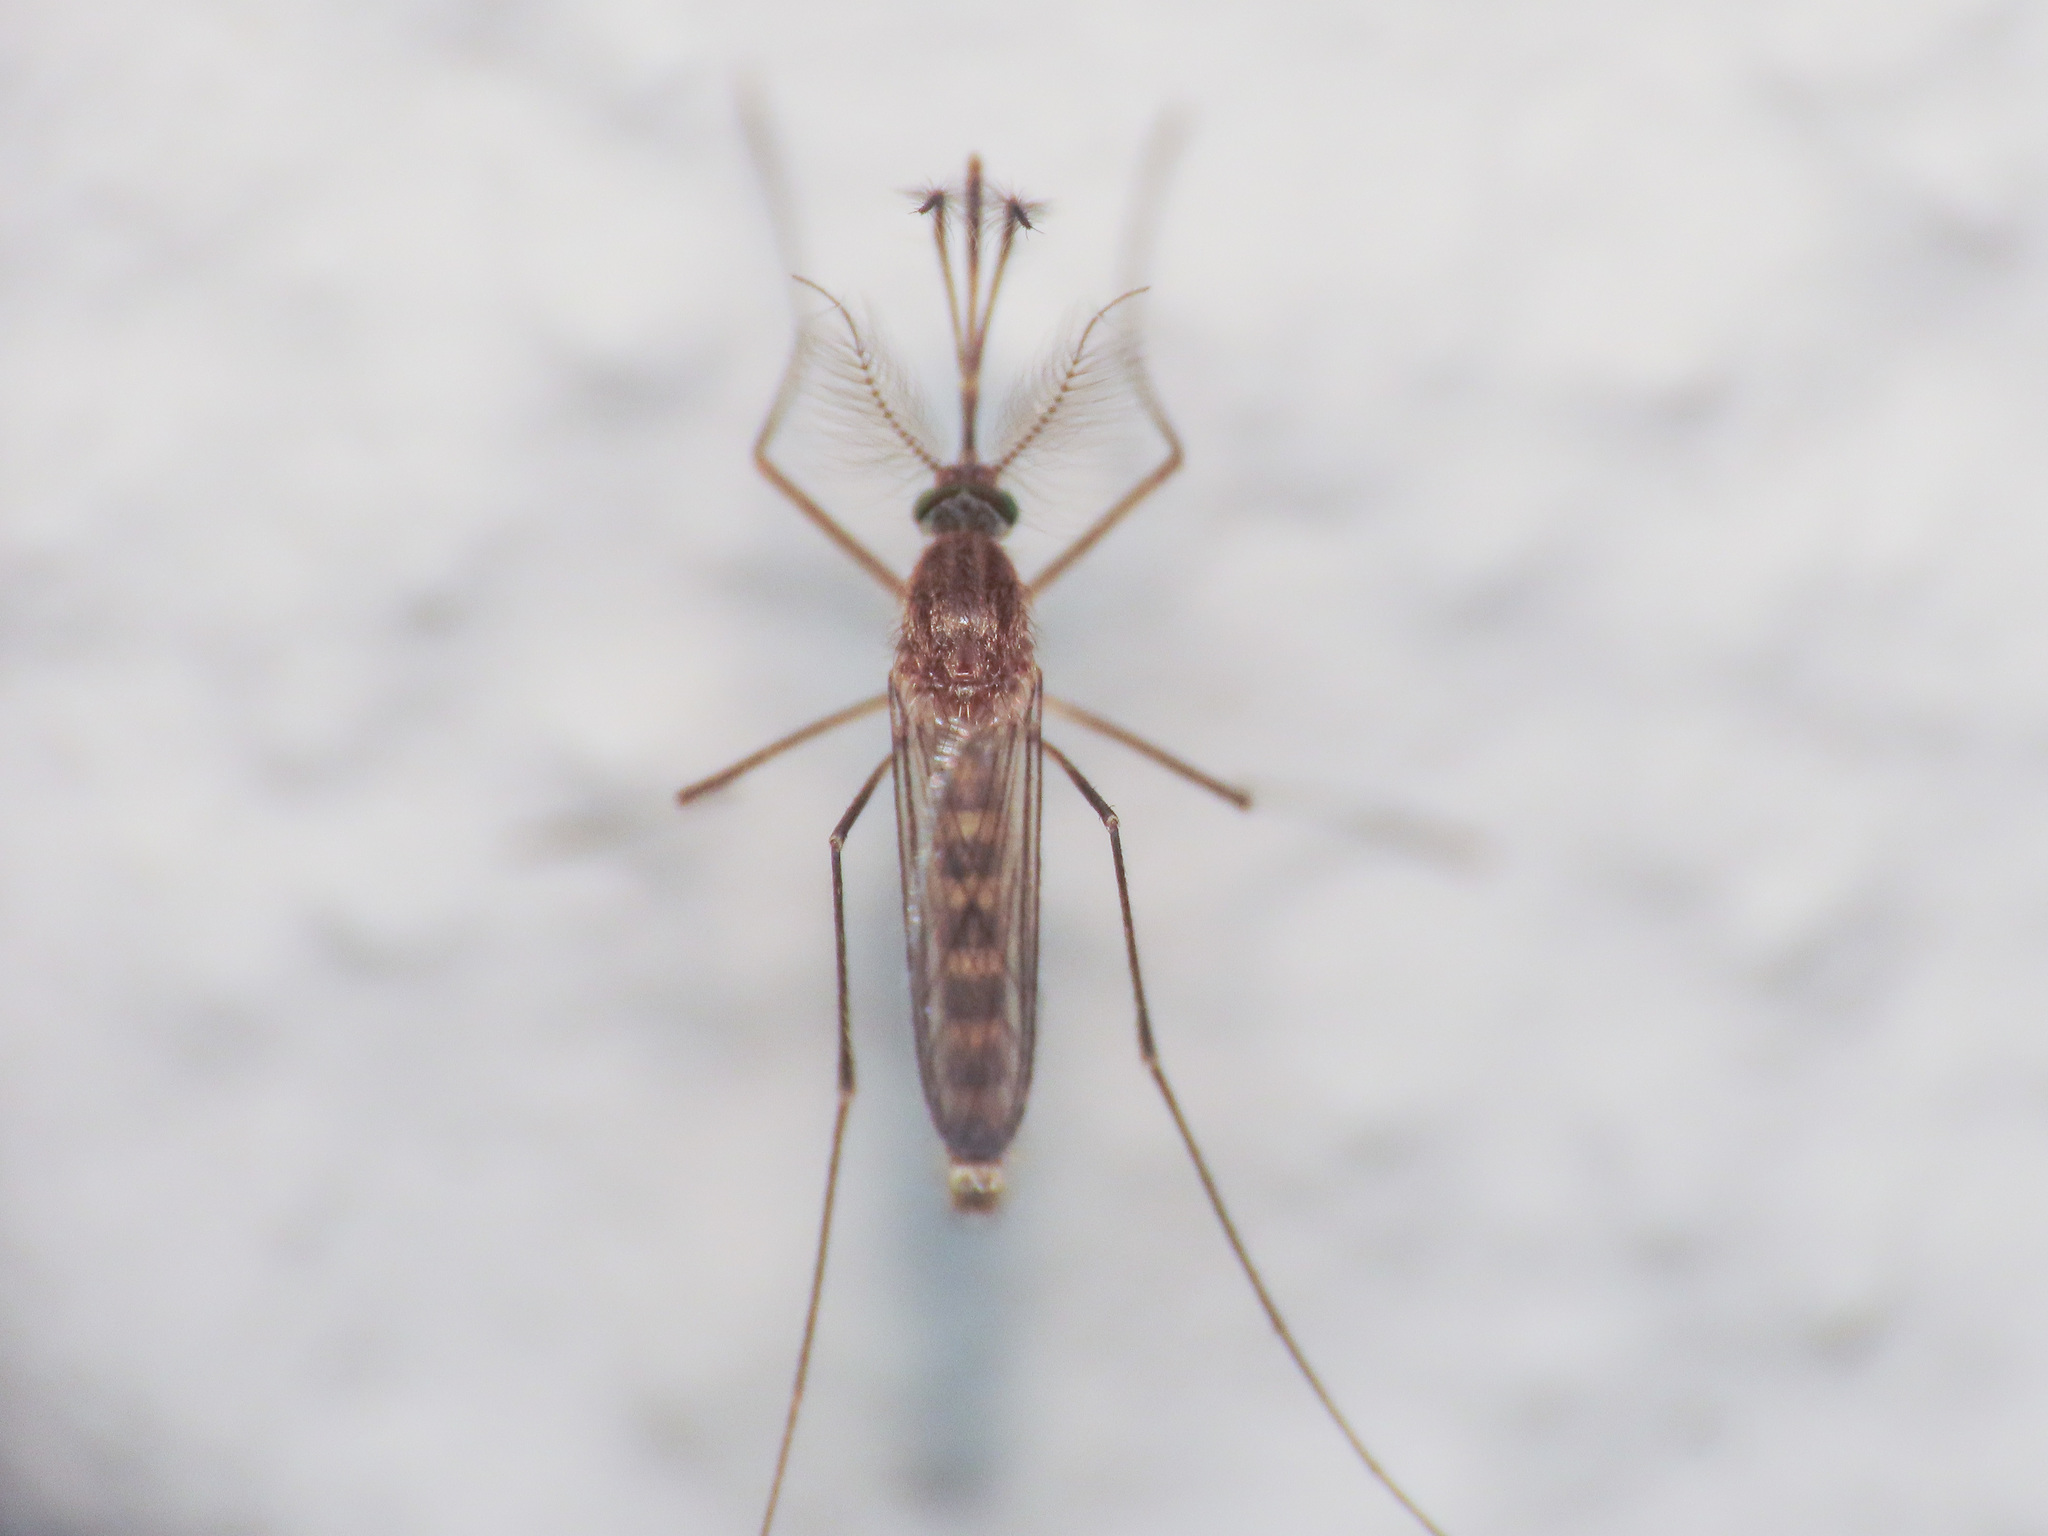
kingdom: Animalia
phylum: Arthropoda
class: Insecta
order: Diptera
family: Culicidae
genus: Culex
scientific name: Culex
